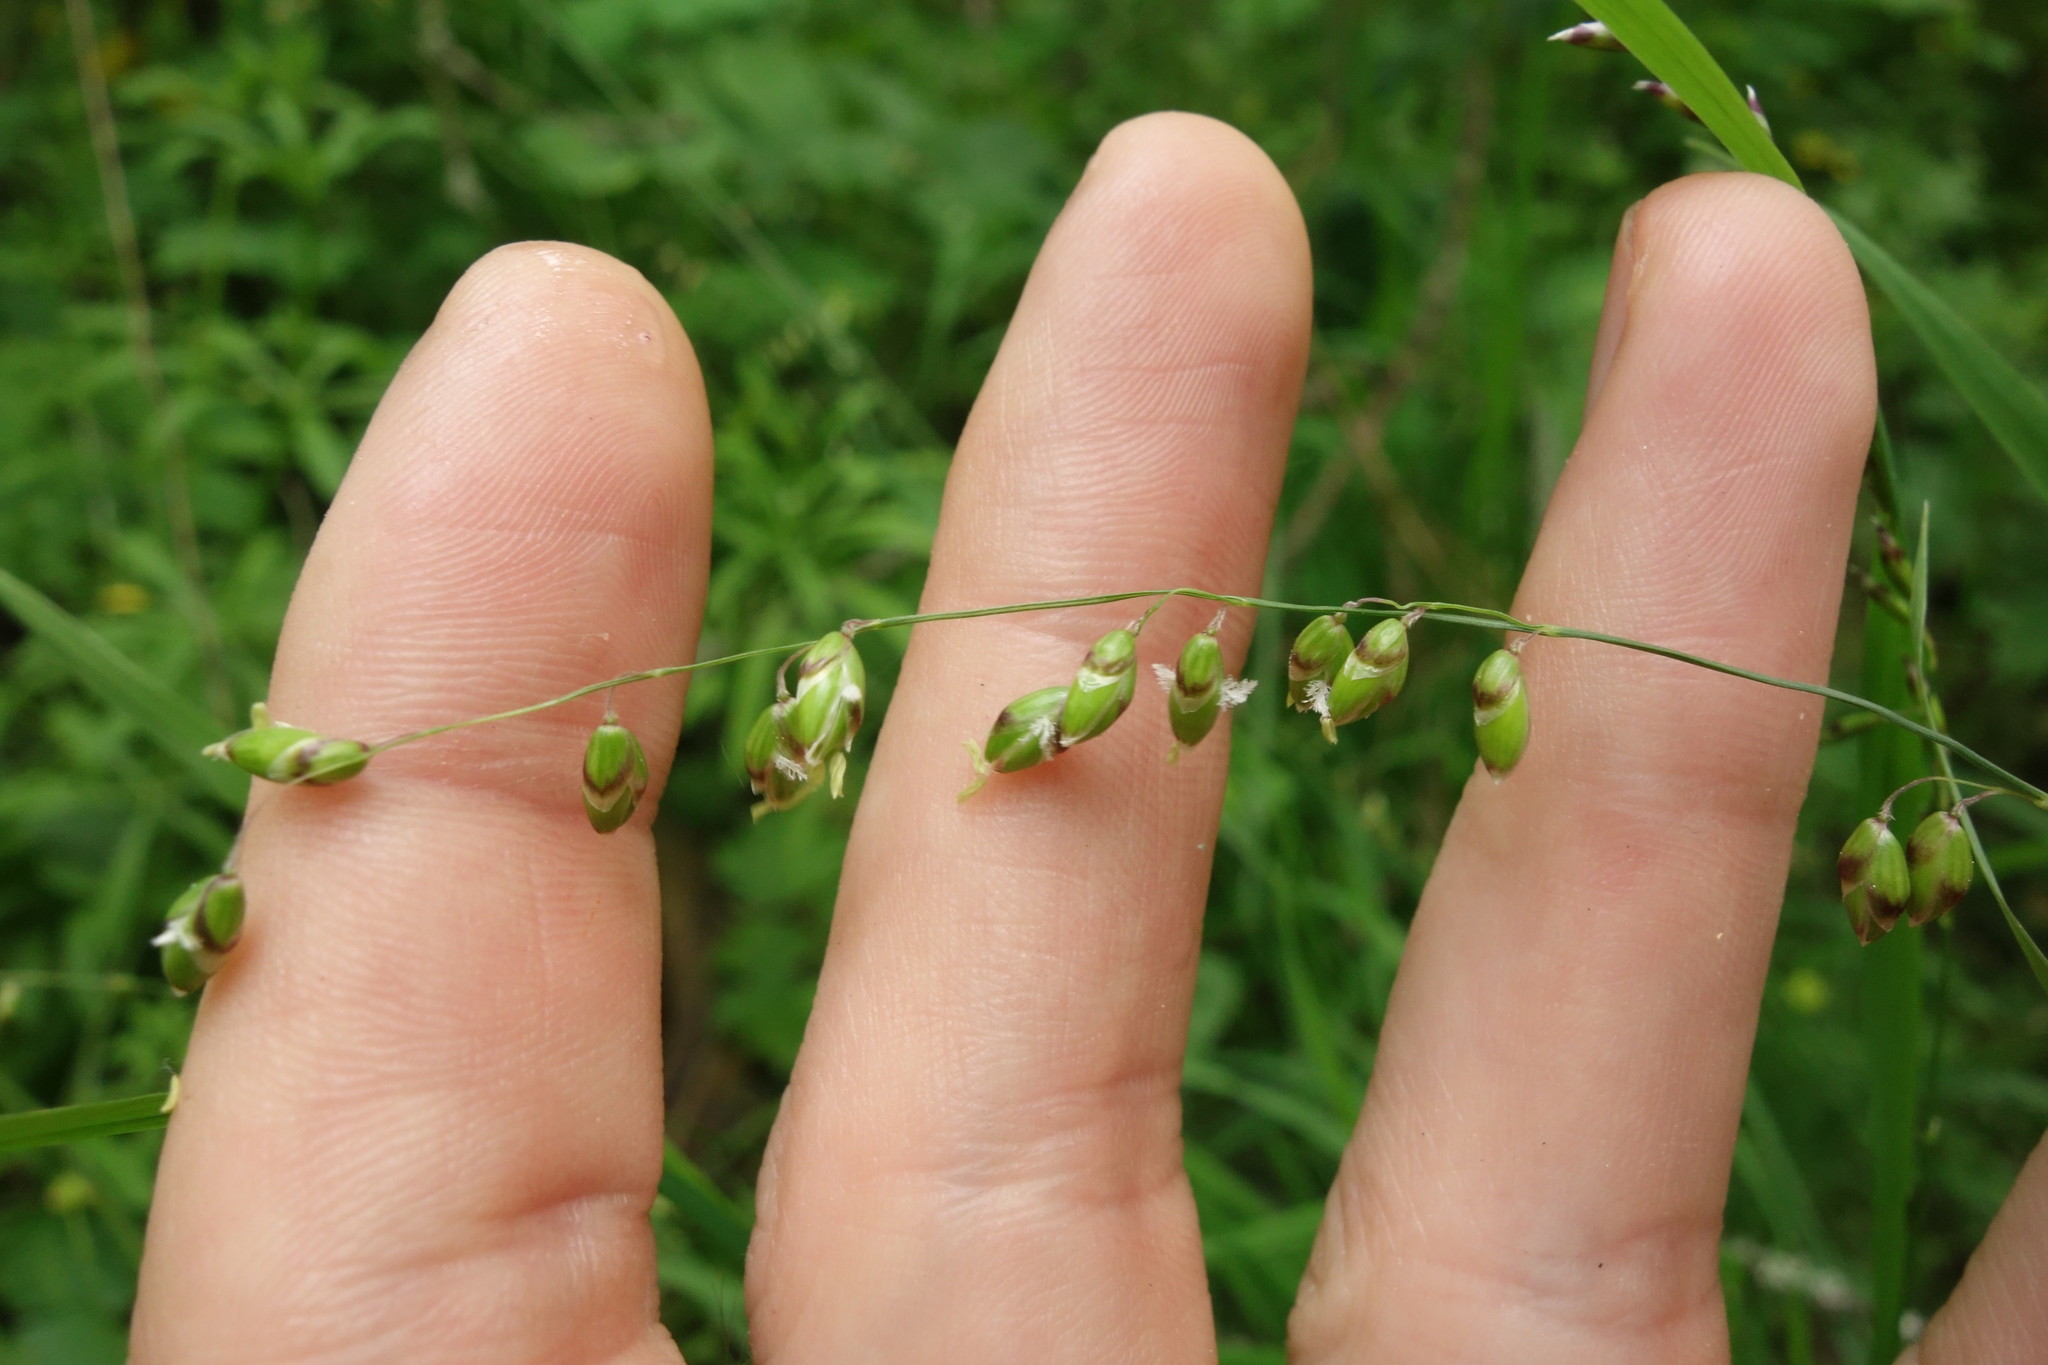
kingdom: Plantae
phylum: Tracheophyta
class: Liliopsida
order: Poales
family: Poaceae
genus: Melica
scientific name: Melica picta
